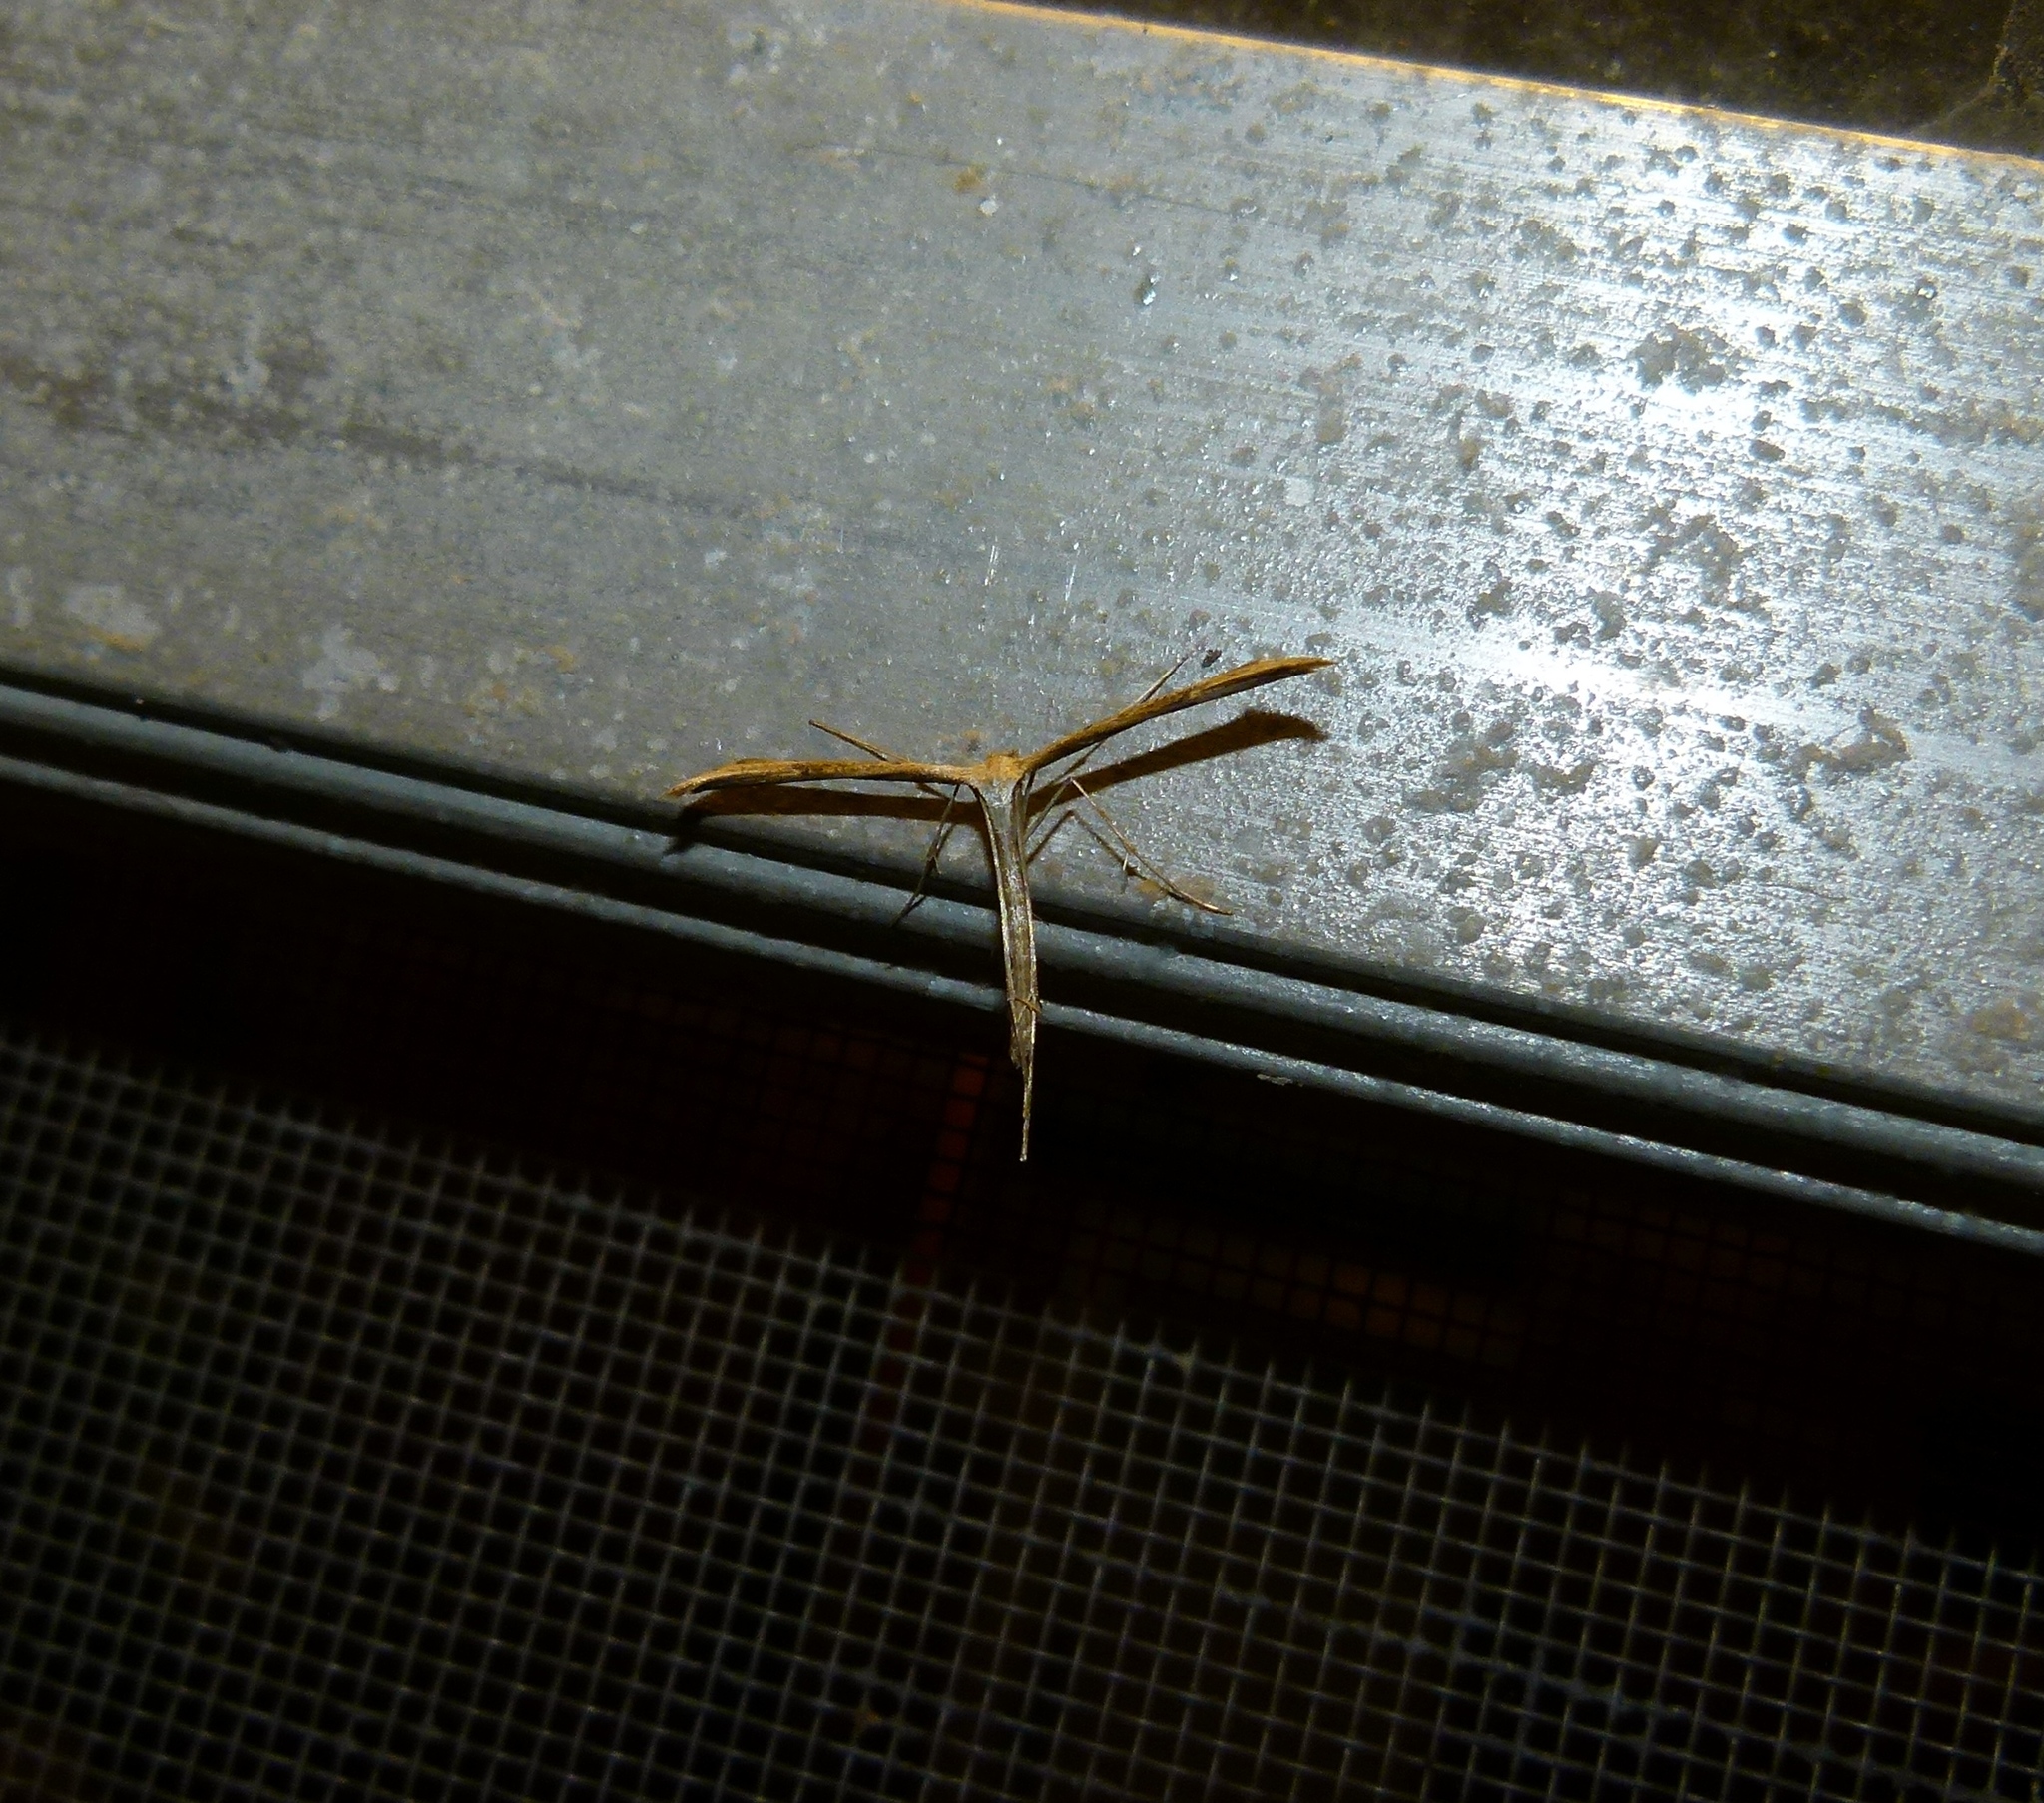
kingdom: Animalia
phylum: Arthropoda
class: Insecta
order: Lepidoptera
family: Pterophoridae
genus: Emmelina
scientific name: Emmelina monodactyla
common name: Common plume
